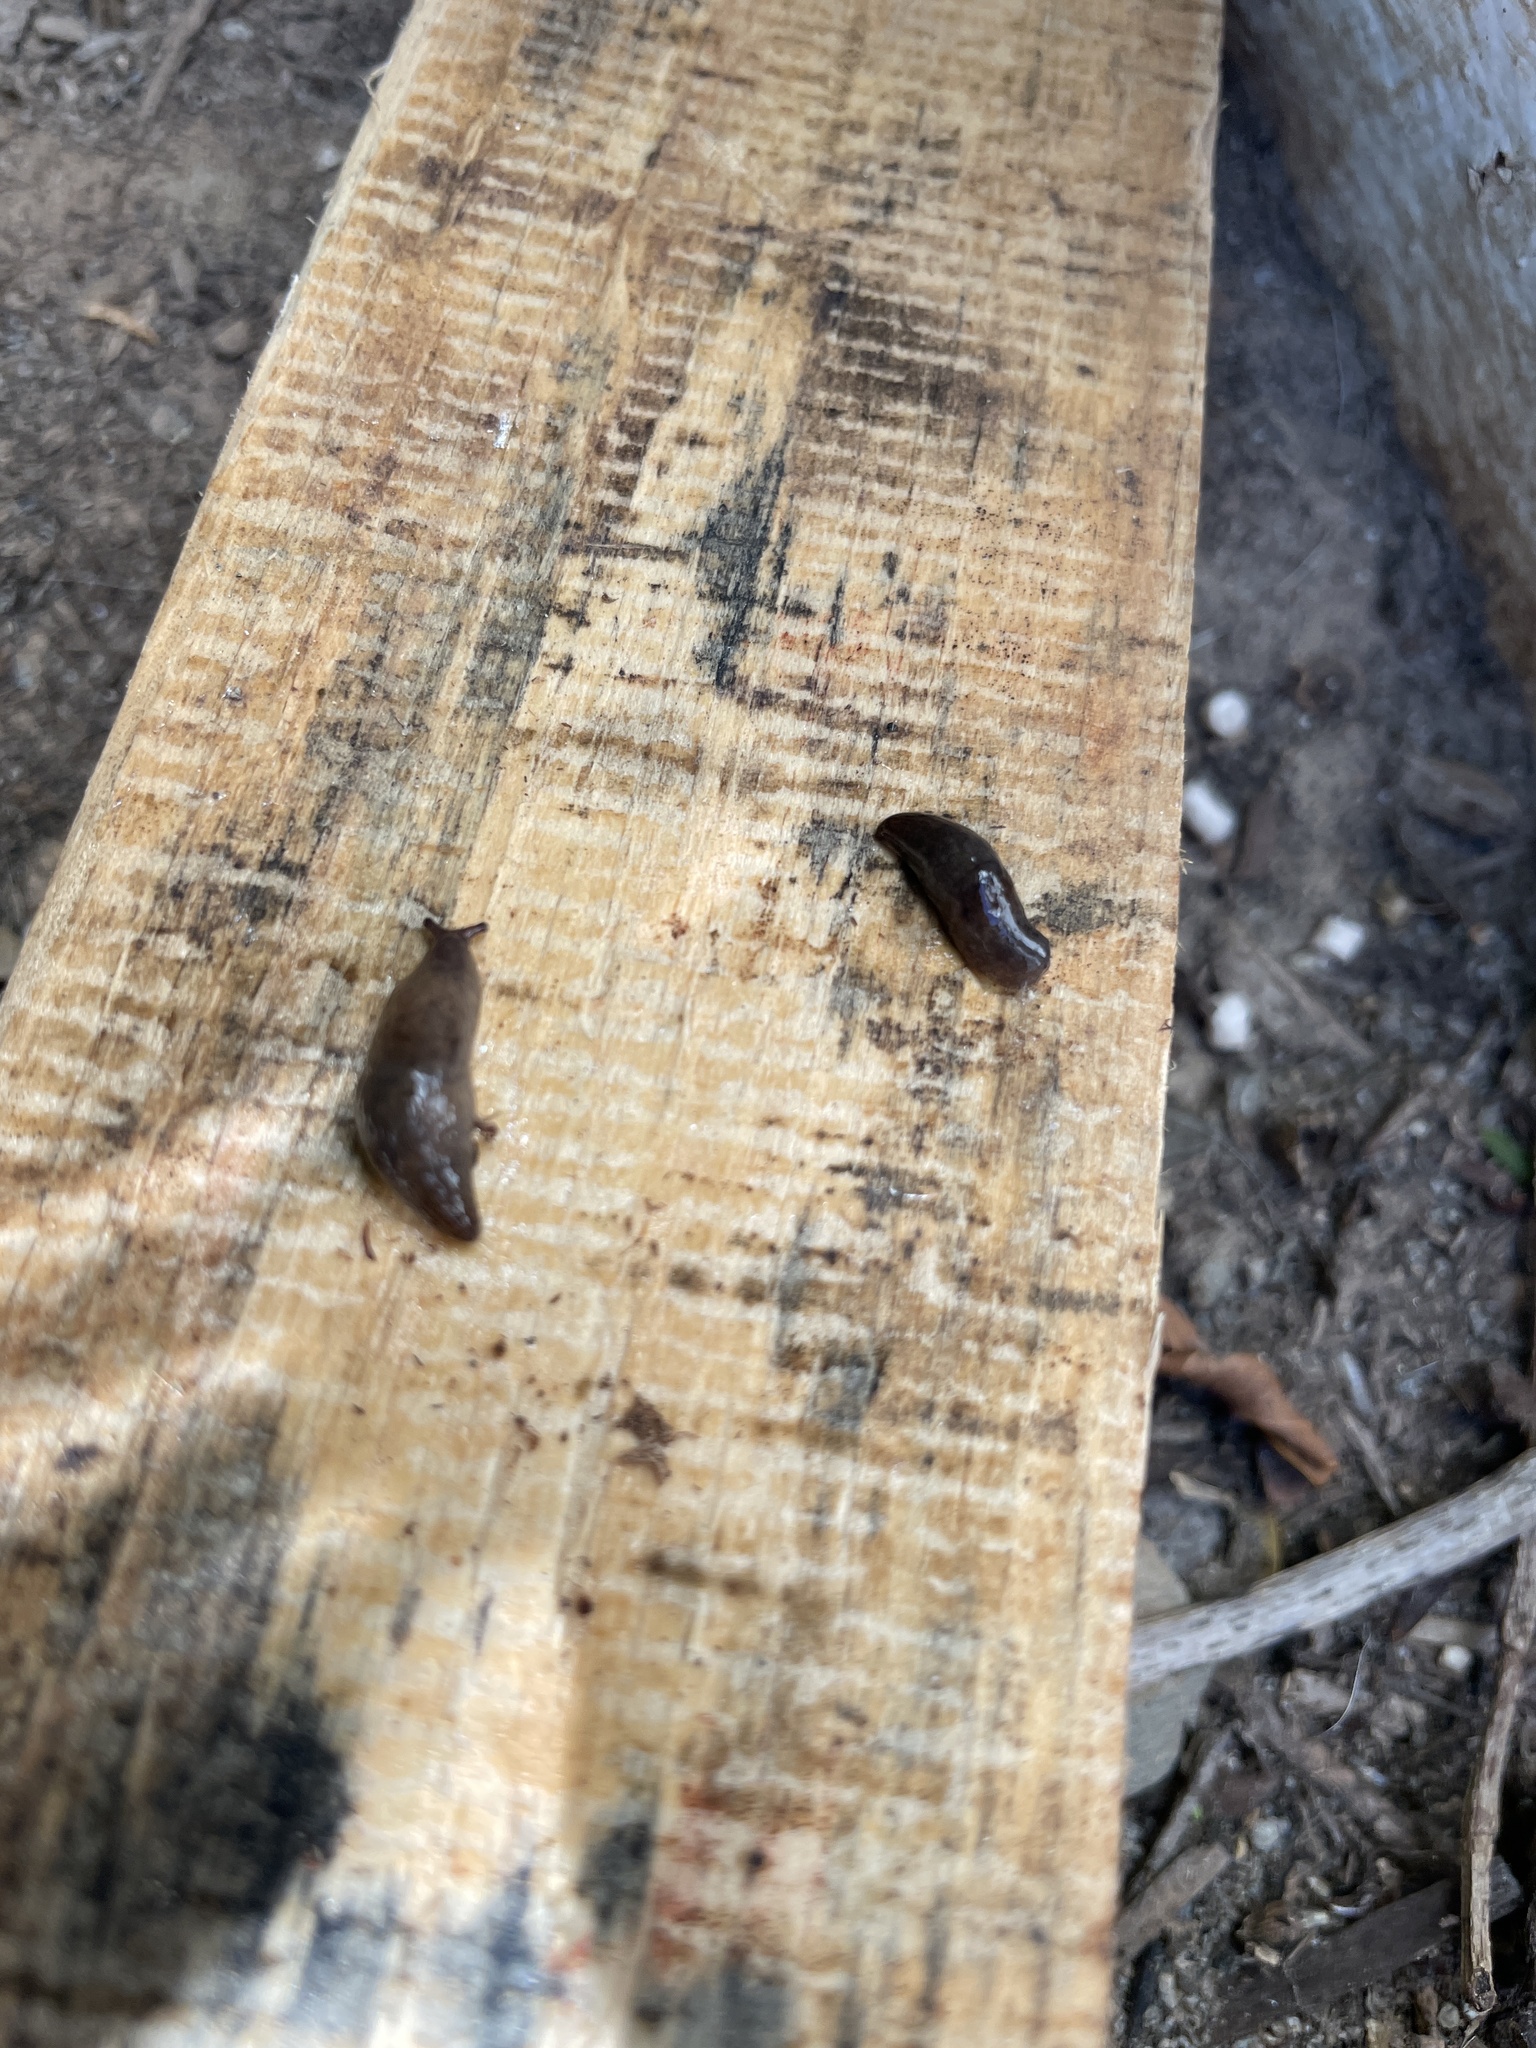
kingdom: Animalia
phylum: Mollusca
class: Gastropoda
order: Stylommatophora
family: Agriolimacidae
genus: Deroceras
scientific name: Deroceras laeve
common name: Marsh slug
